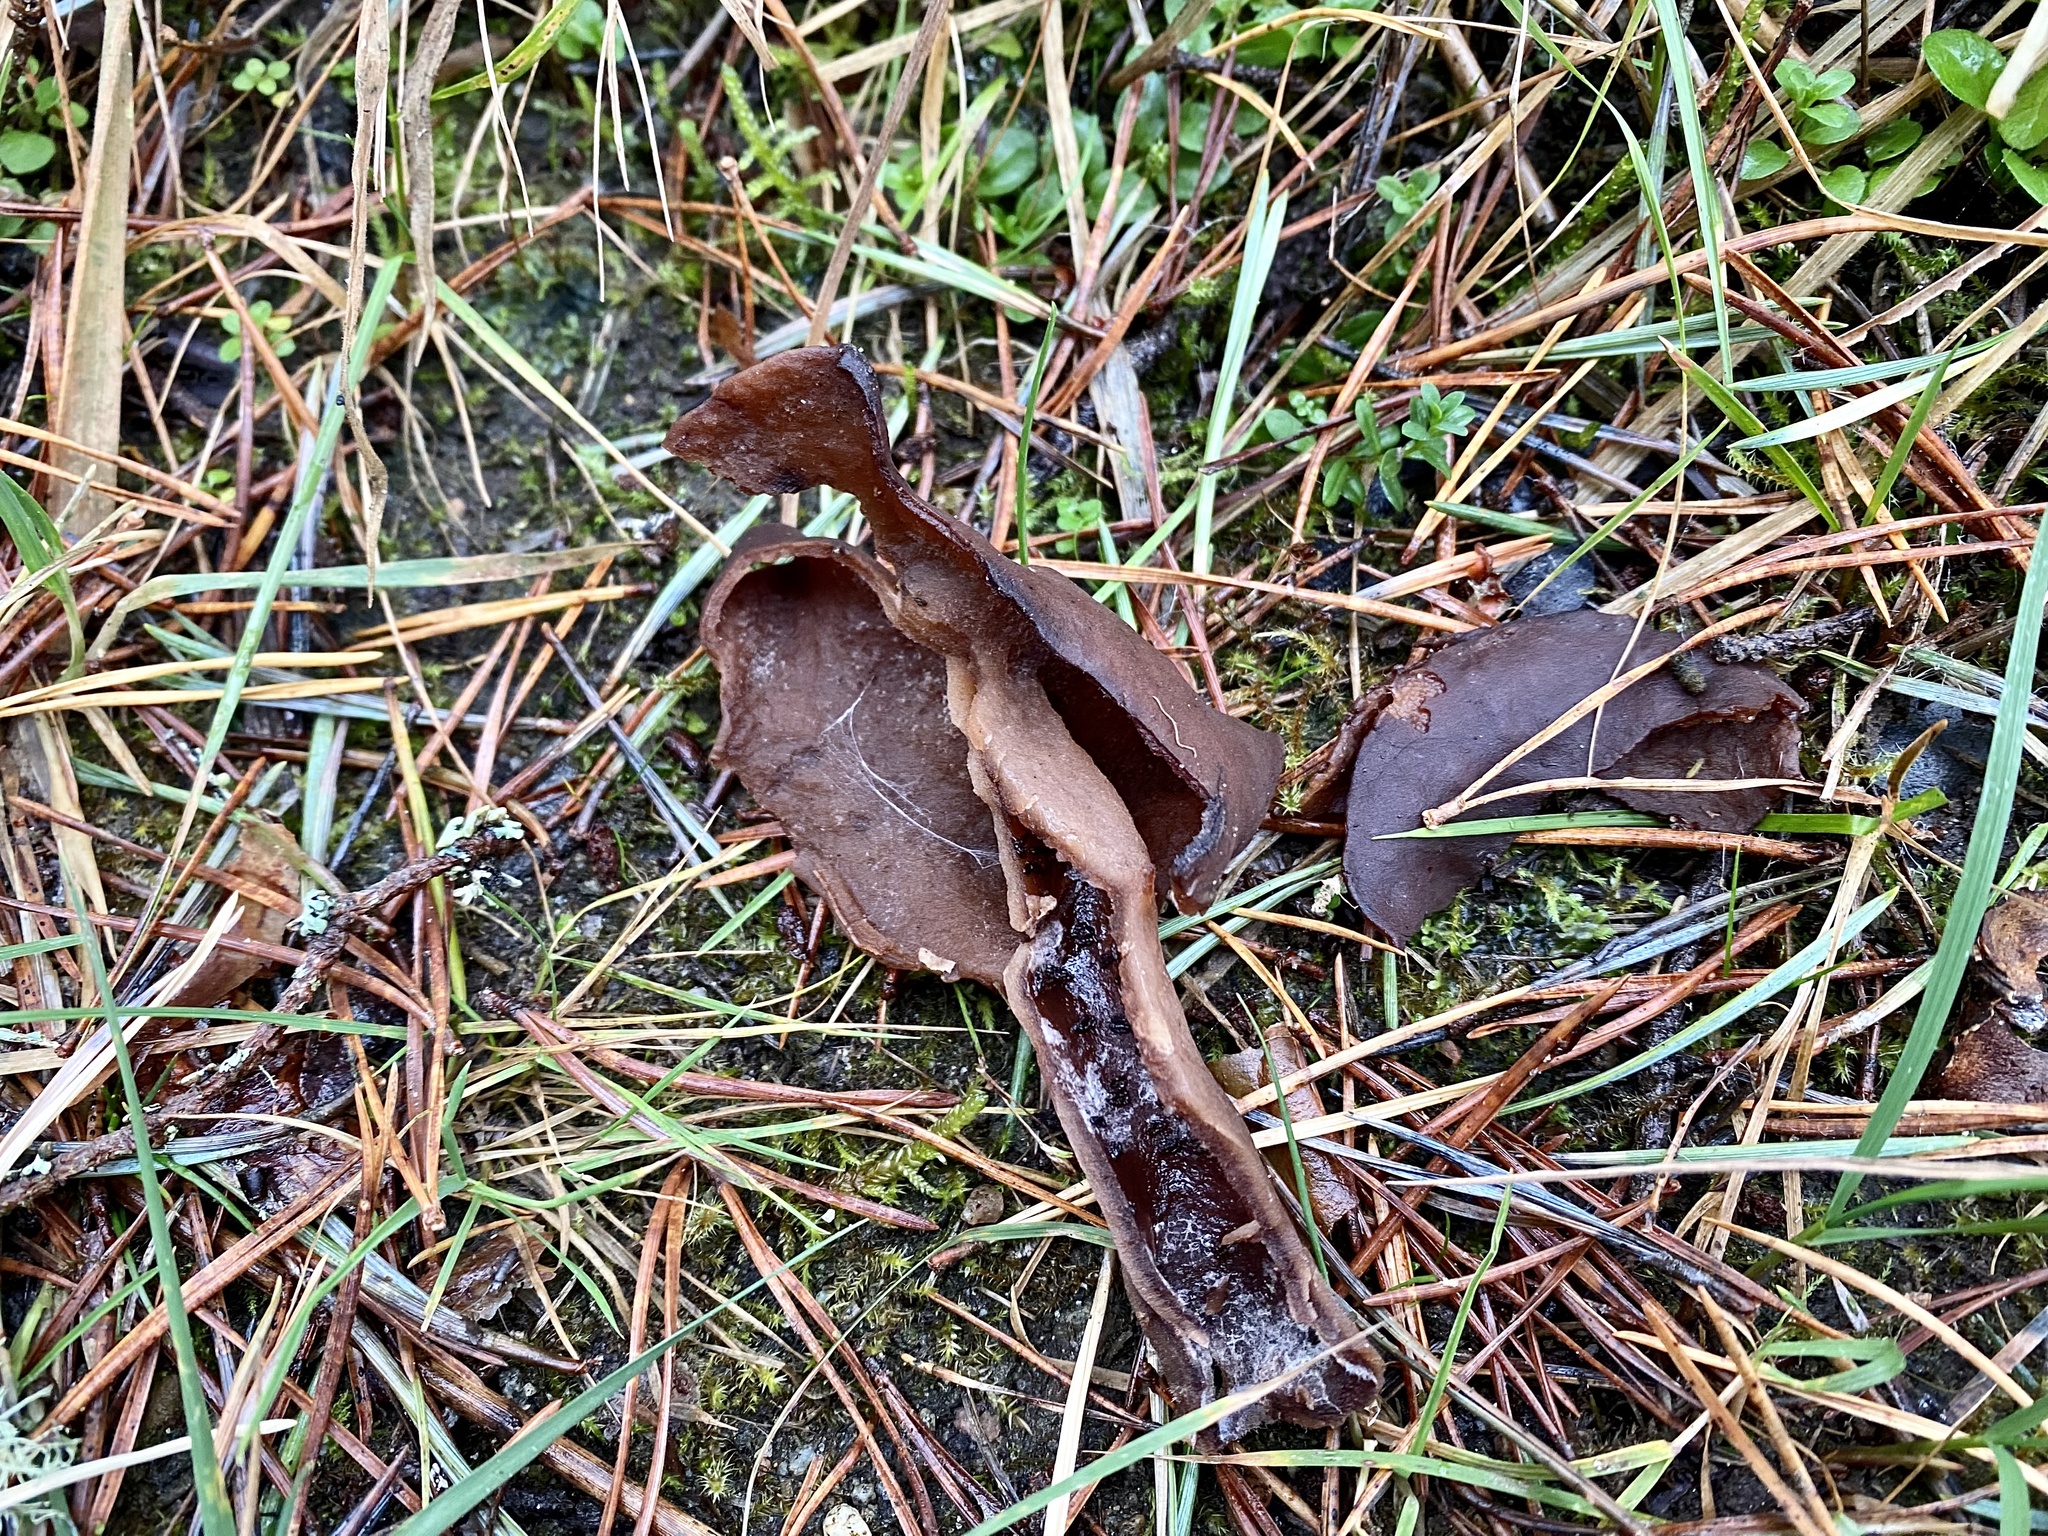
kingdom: Fungi
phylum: Ascomycota
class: Pezizomycetes
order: Pezizales
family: Discinaceae
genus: Gyromitra
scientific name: Gyromitra infula
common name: Pouched false morel
